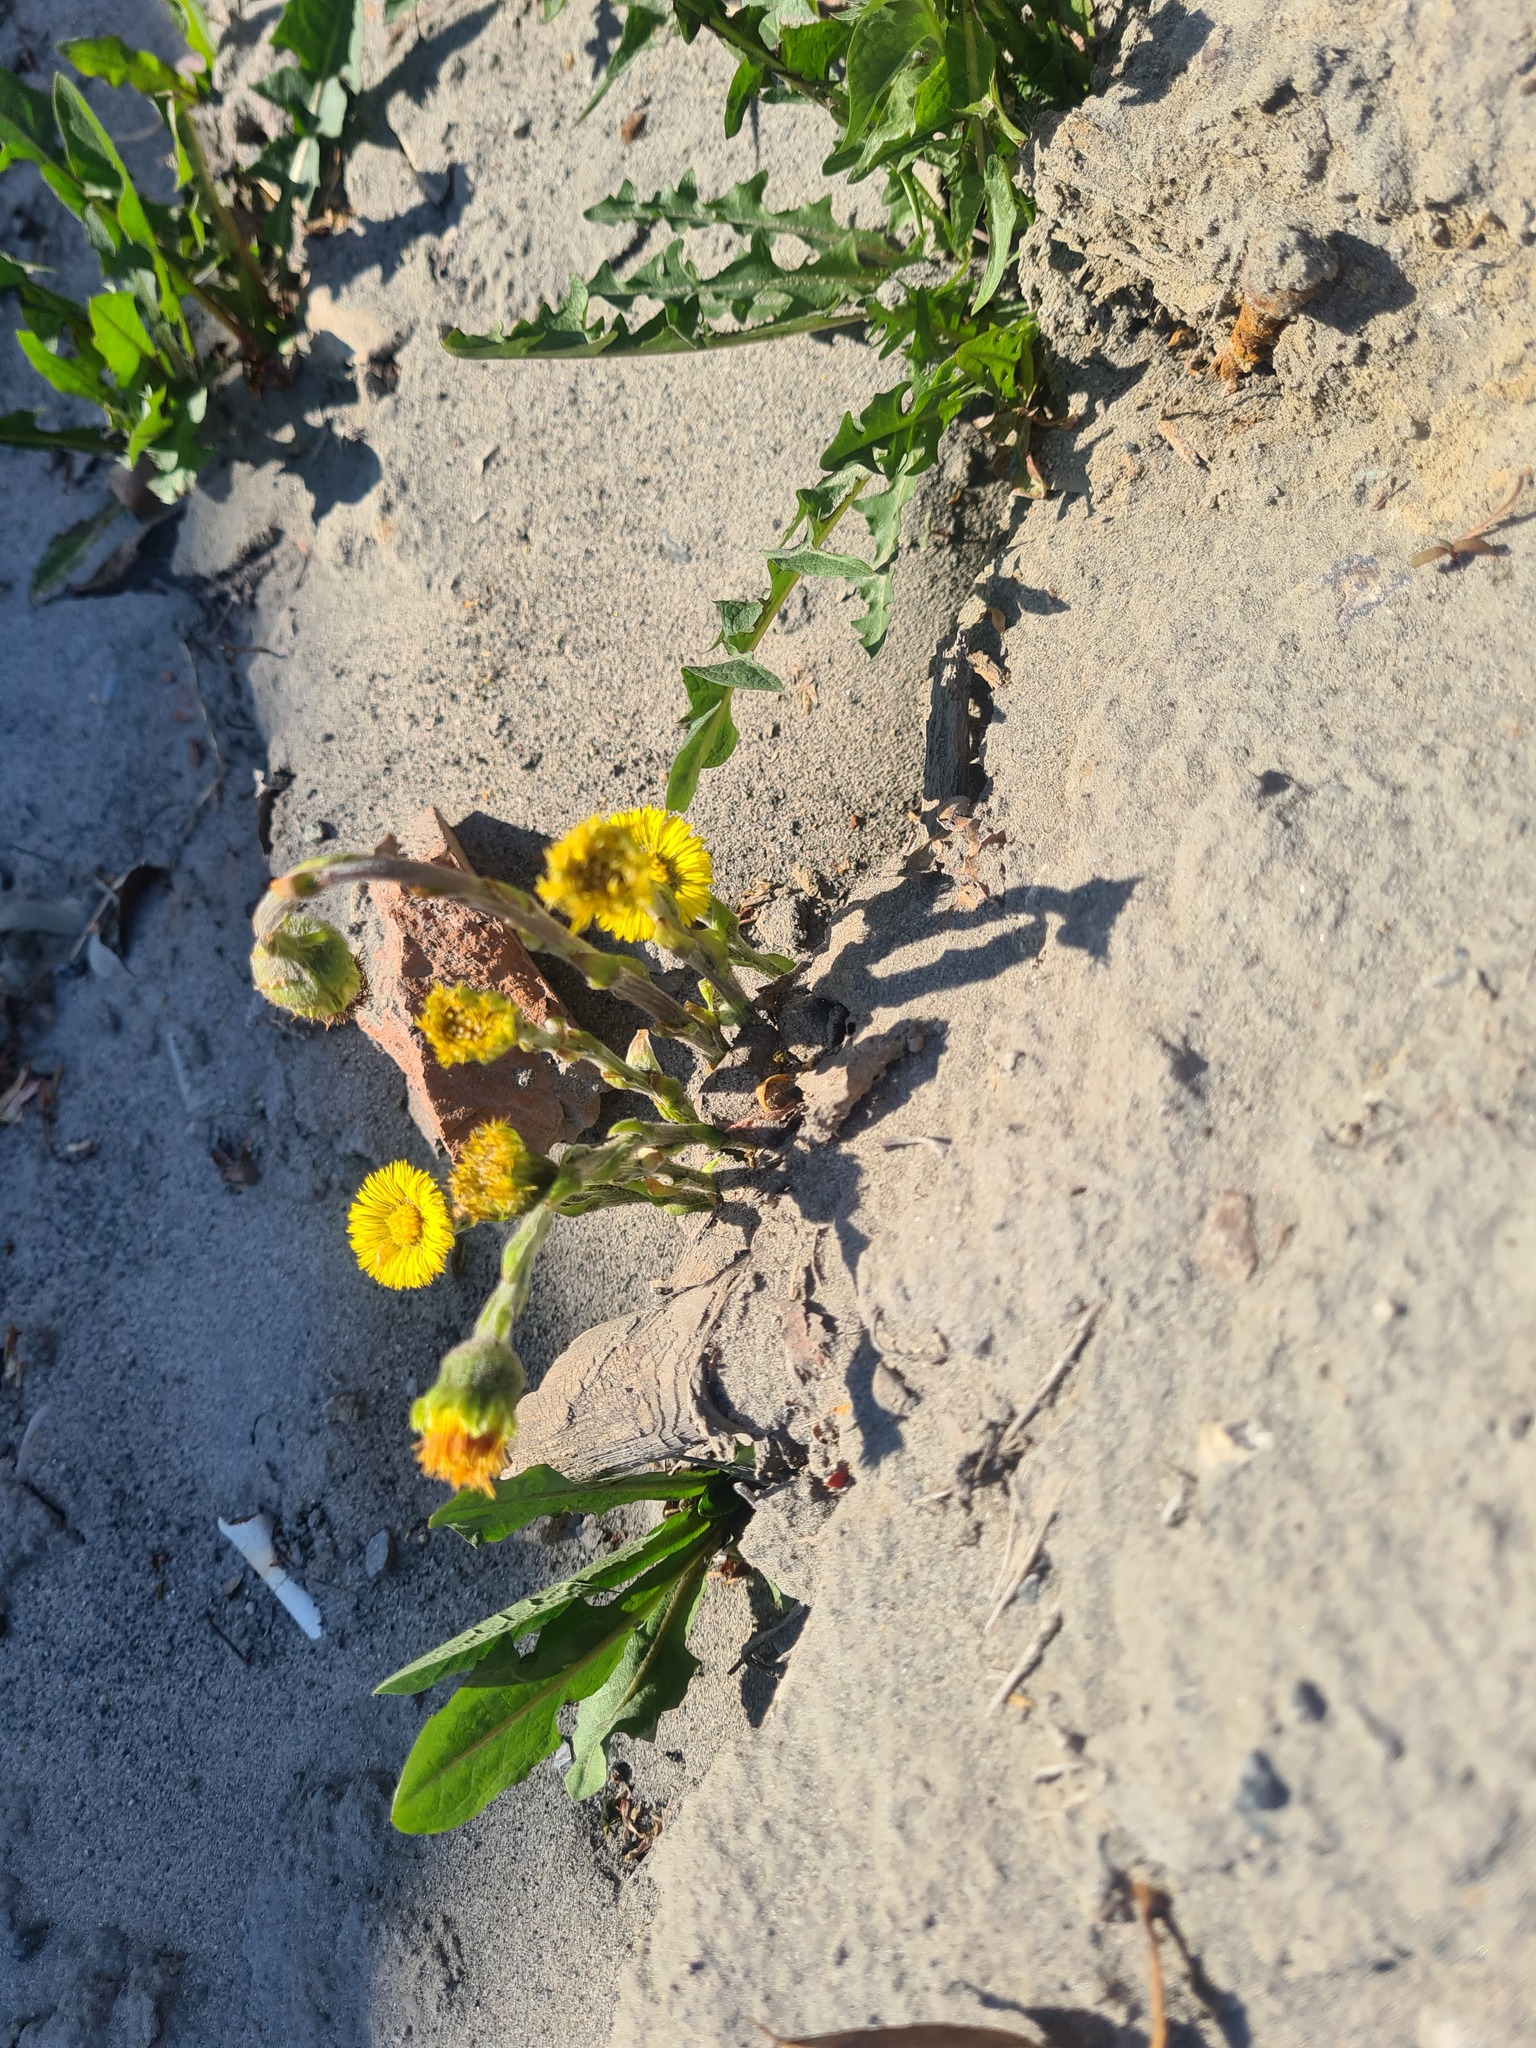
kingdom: Plantae
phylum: Tracheophyta
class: Magnoliopsida
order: Asterales
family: Asteraceae
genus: Tussilago
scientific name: Tussilago farfara
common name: Coltsfoot
